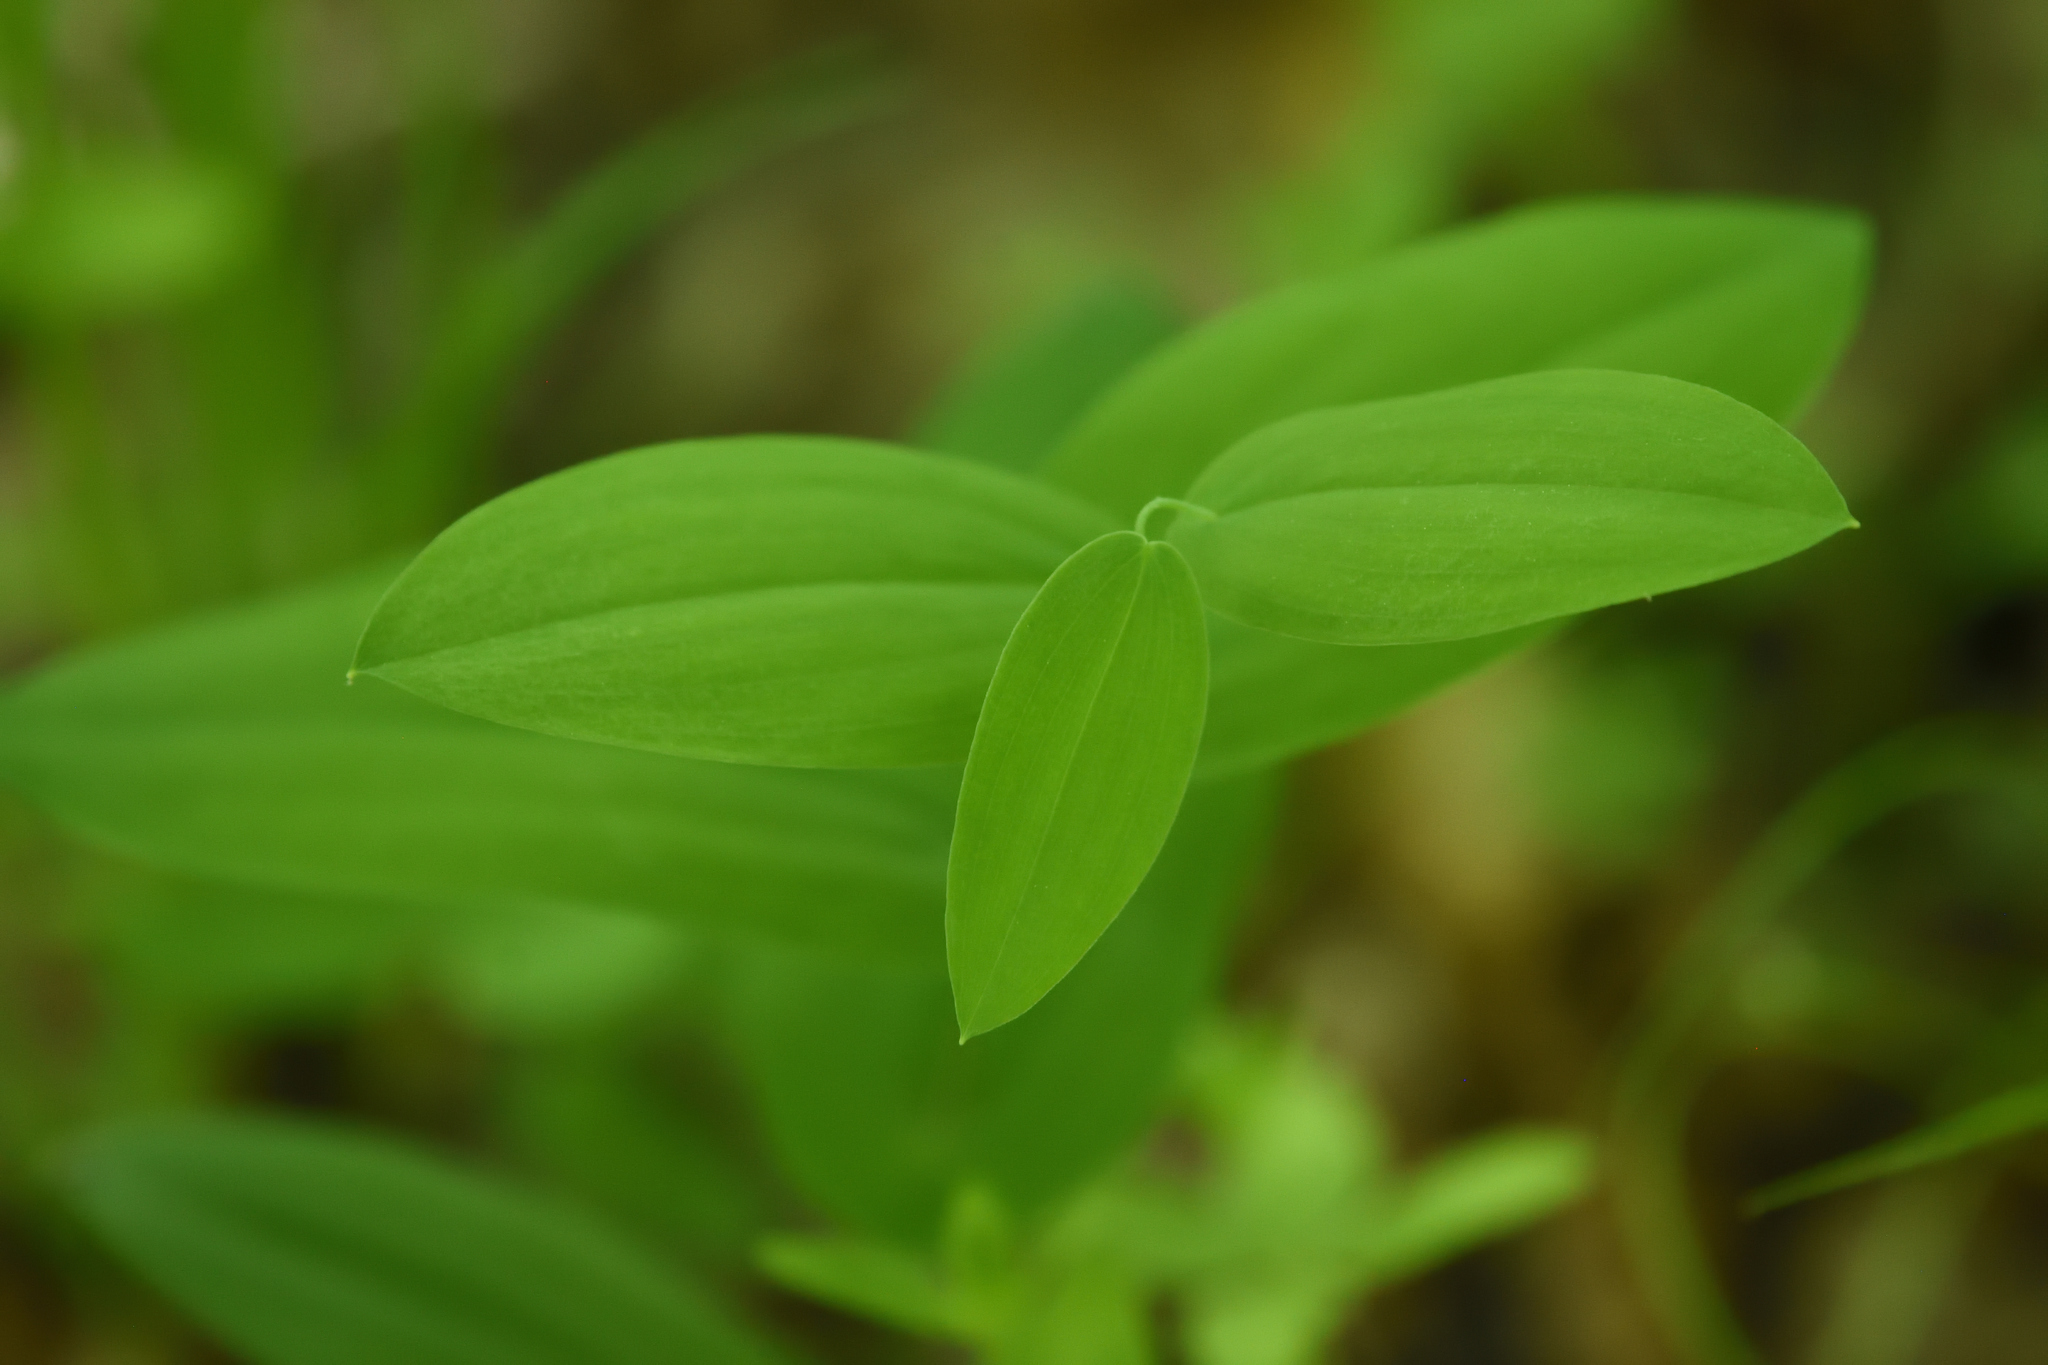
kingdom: Plantae
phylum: Tracheophyta
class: Liliopsida
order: Liliales
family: Colchicaceae
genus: Uvularia
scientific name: Uvularia perfoliata
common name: Perfoliate bellwort
